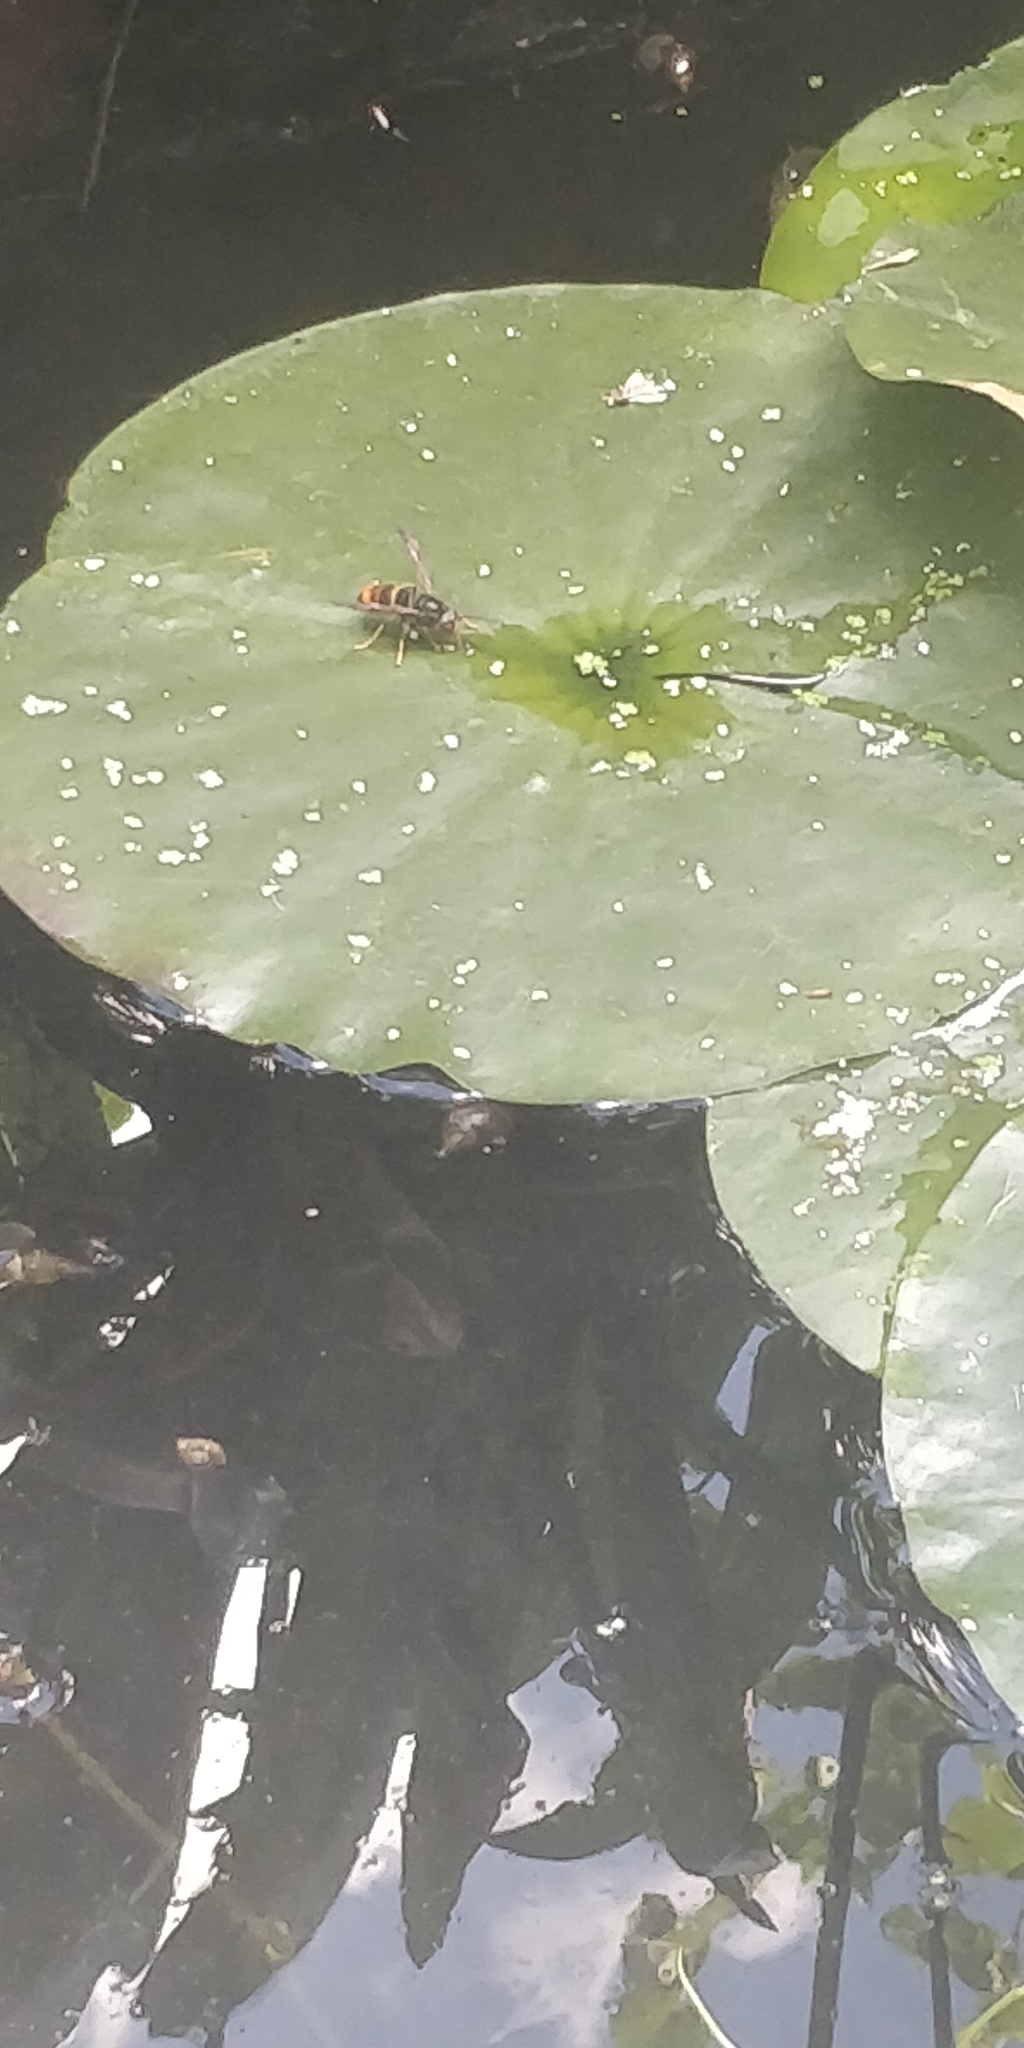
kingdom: Animalia
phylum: Arthropoda
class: Insecta
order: Hymenoptera
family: Vespidae
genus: Vespa
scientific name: Vespa velutina
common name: Asian hornet
